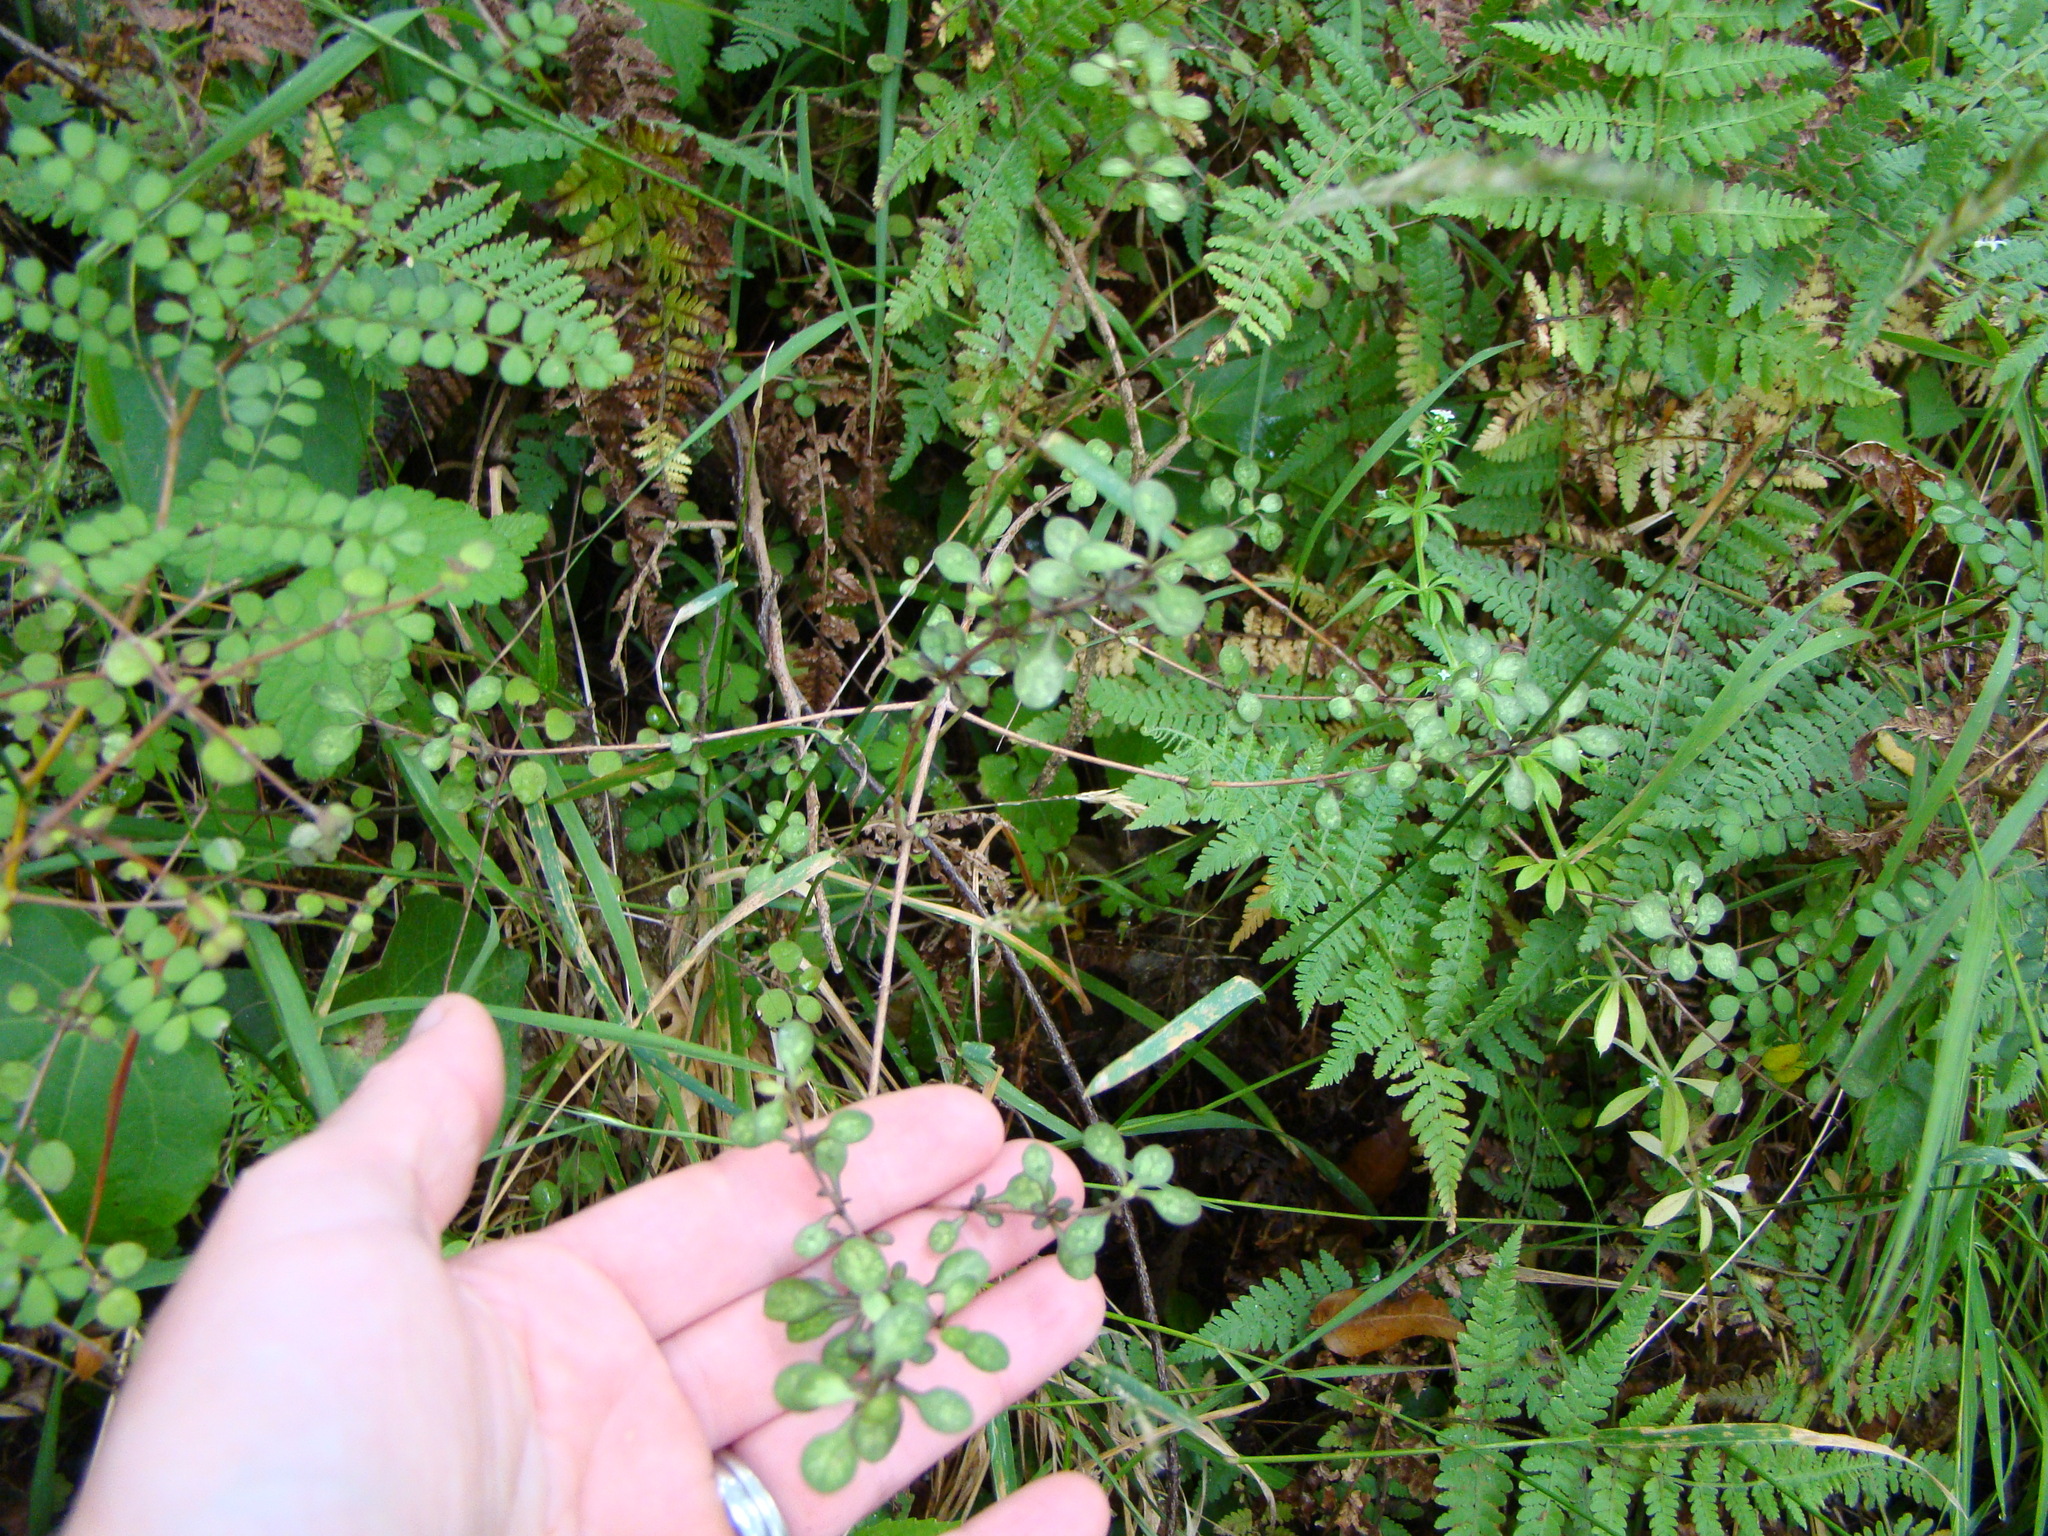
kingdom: Plantae
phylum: Tracheophyta
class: Magnoliopsida
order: Gentianales
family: Rubiaceae
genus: Coprosma
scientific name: Coprosma tenuicaulis
